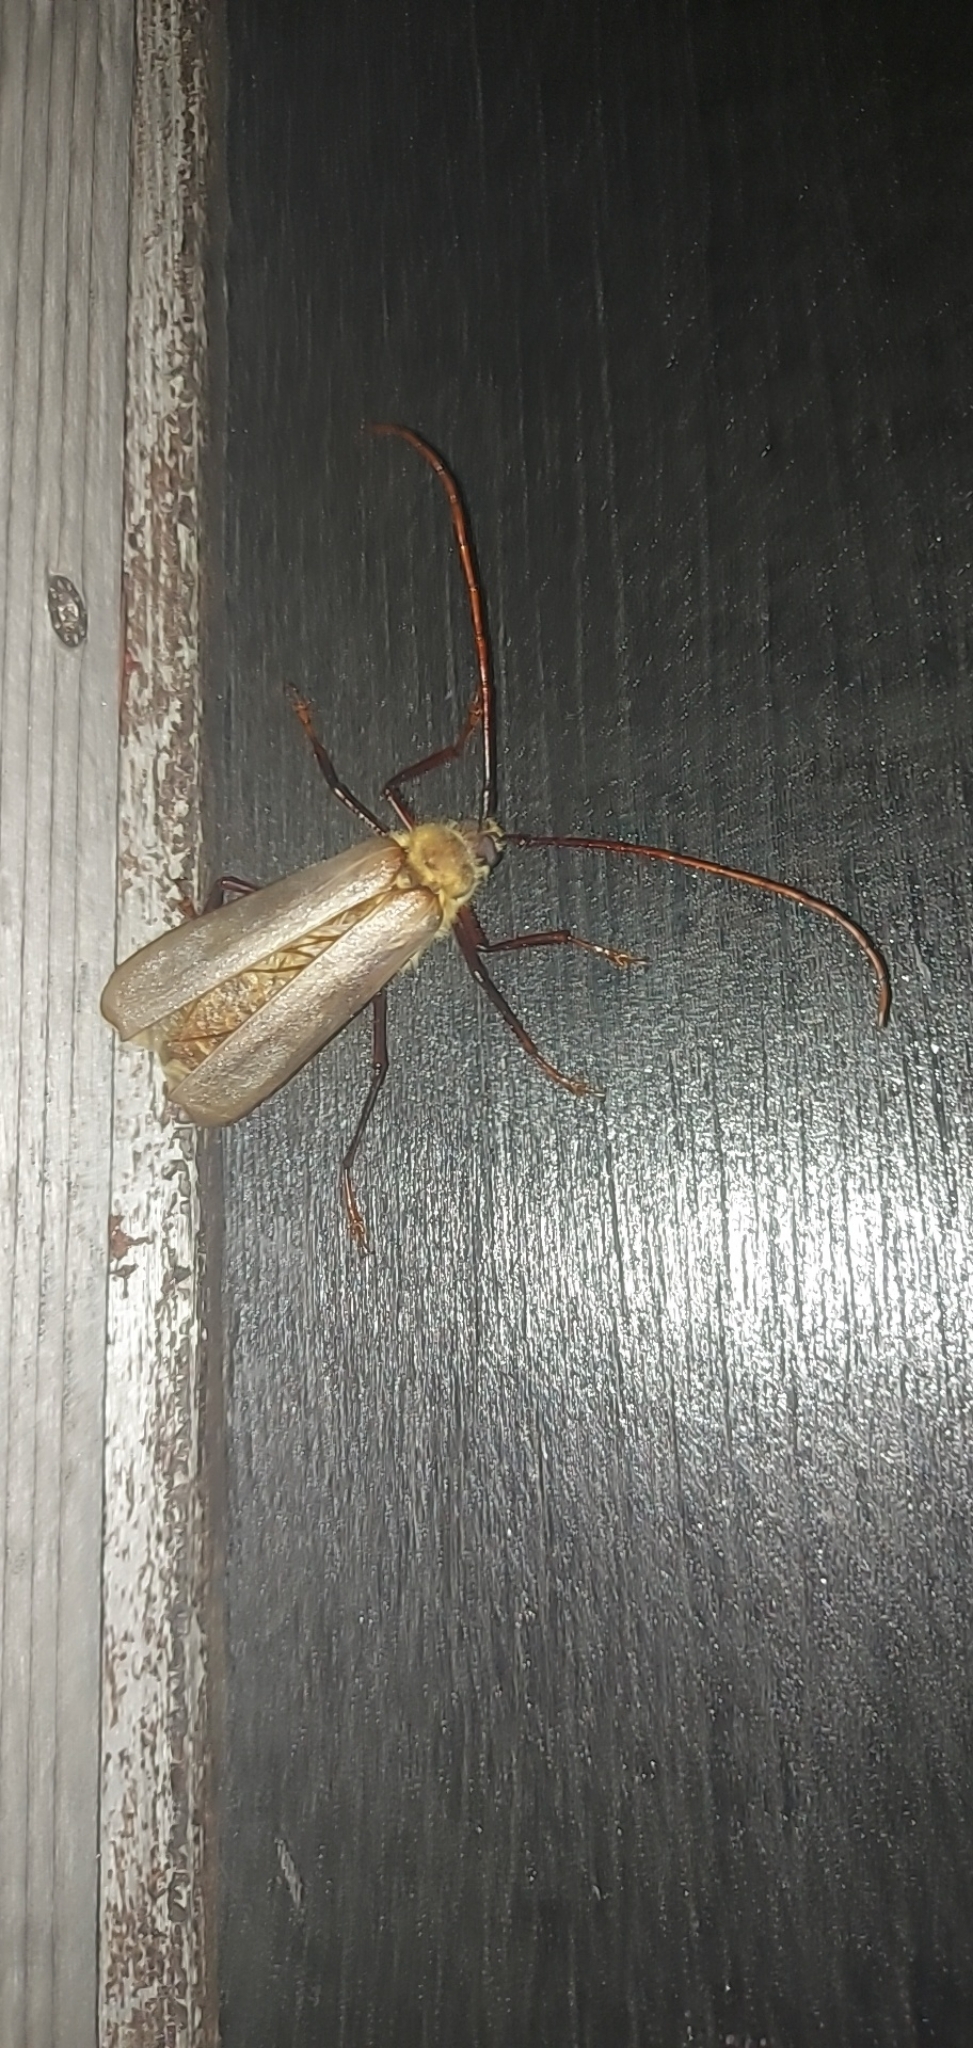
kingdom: Animalia
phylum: Arthropoda
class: Insecta
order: Coleoptera
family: Cerambycidae
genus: Erioderus
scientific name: Erioderus hirtus
